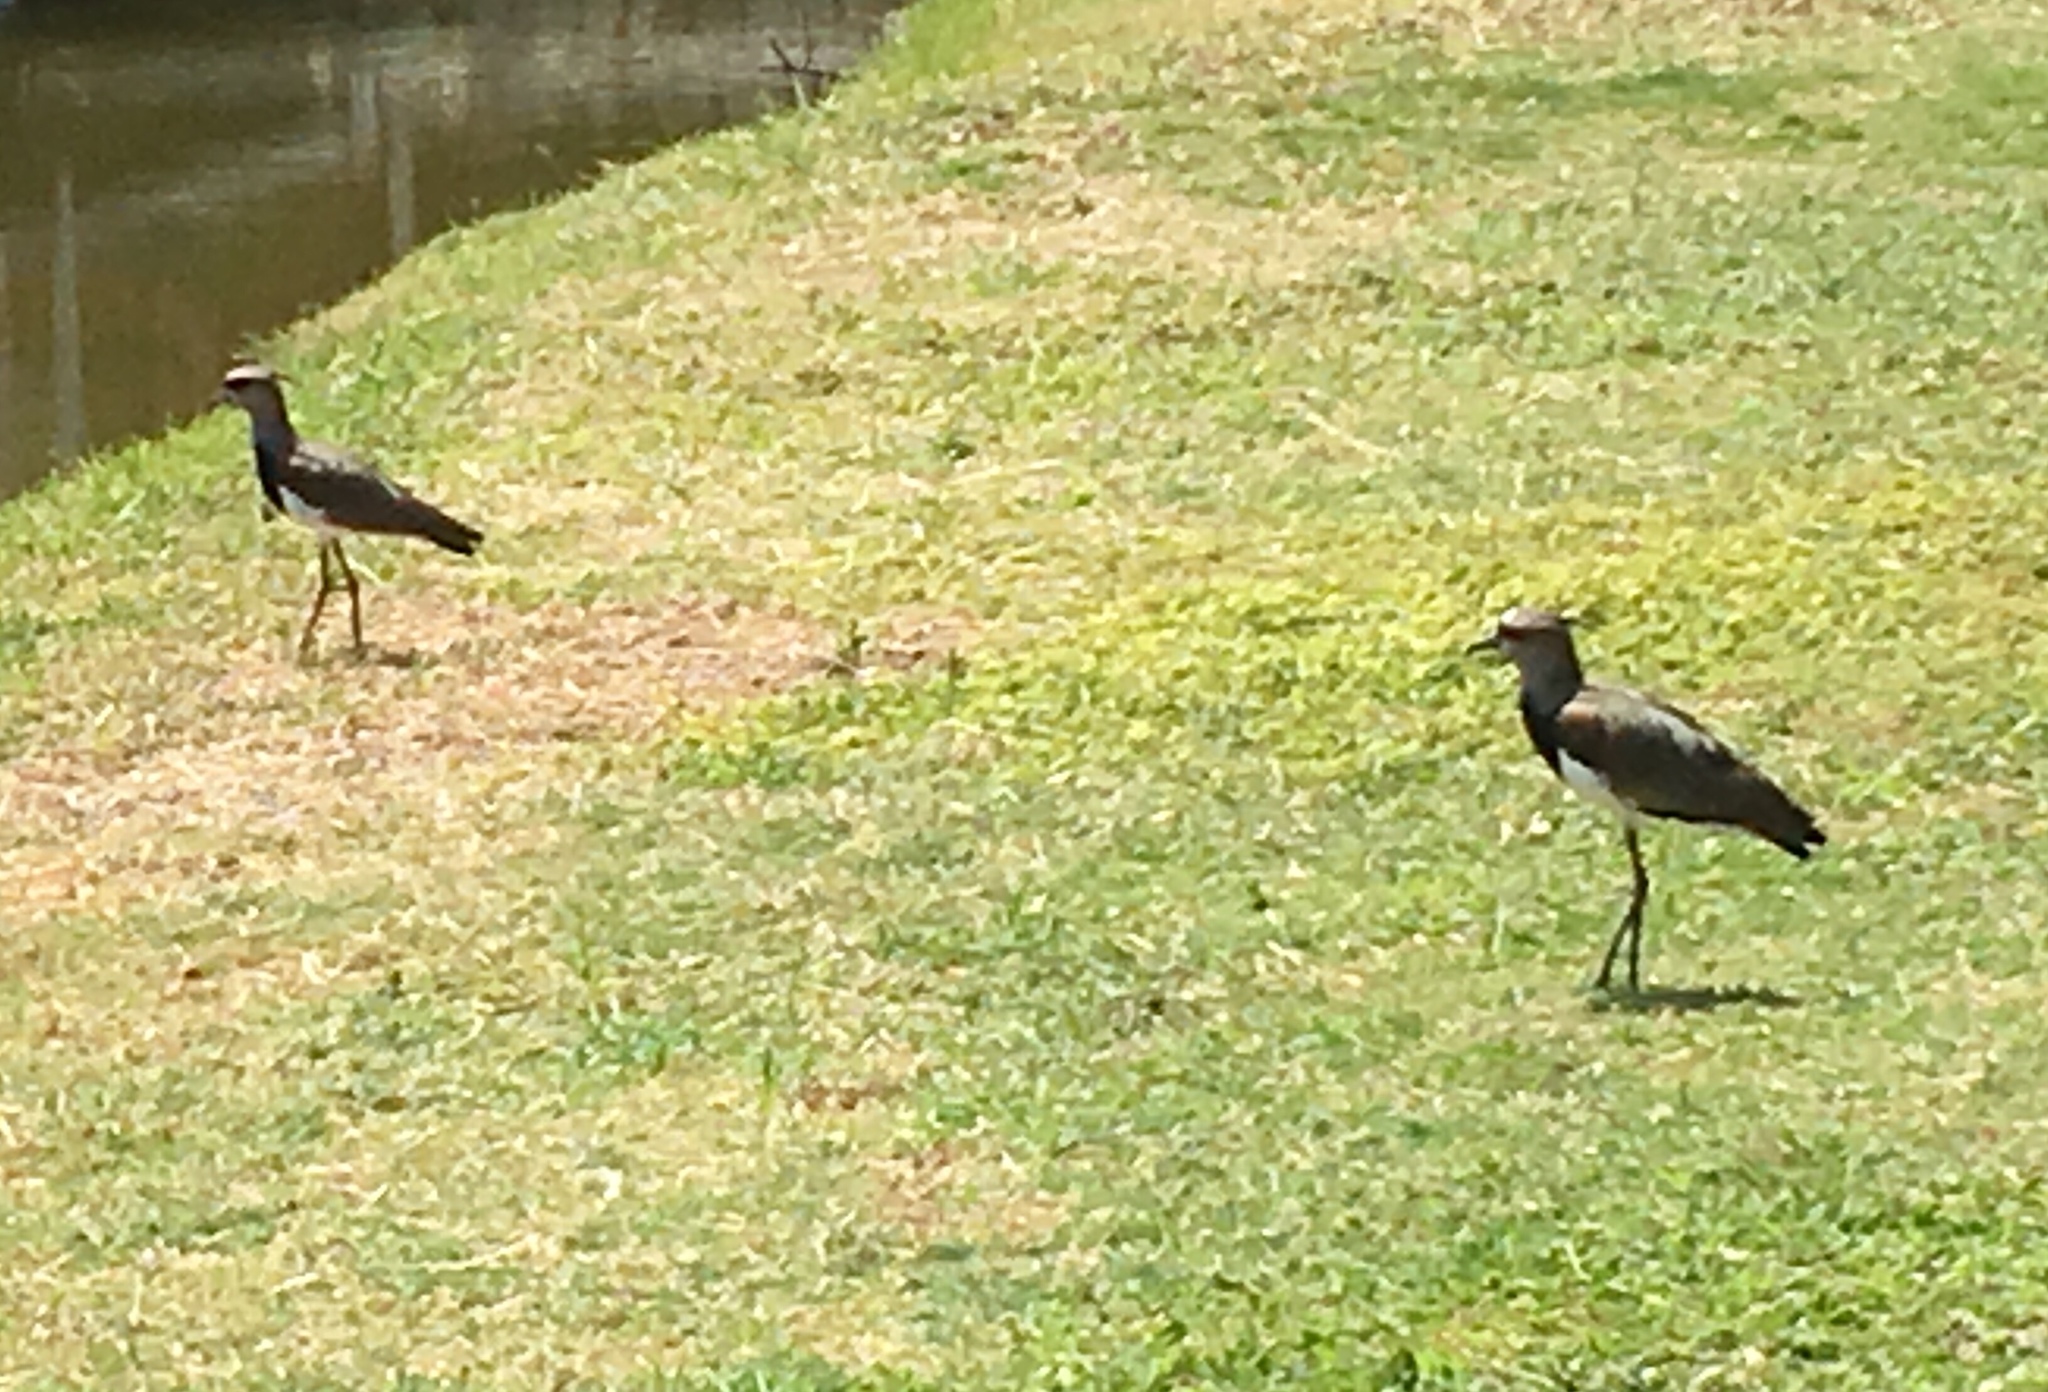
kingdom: Animalia
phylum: Chordata
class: Aves
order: Charadriiformes
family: Charadriidae
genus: Vanellus
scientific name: Vanellus chilensis
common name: Southern lapwing
